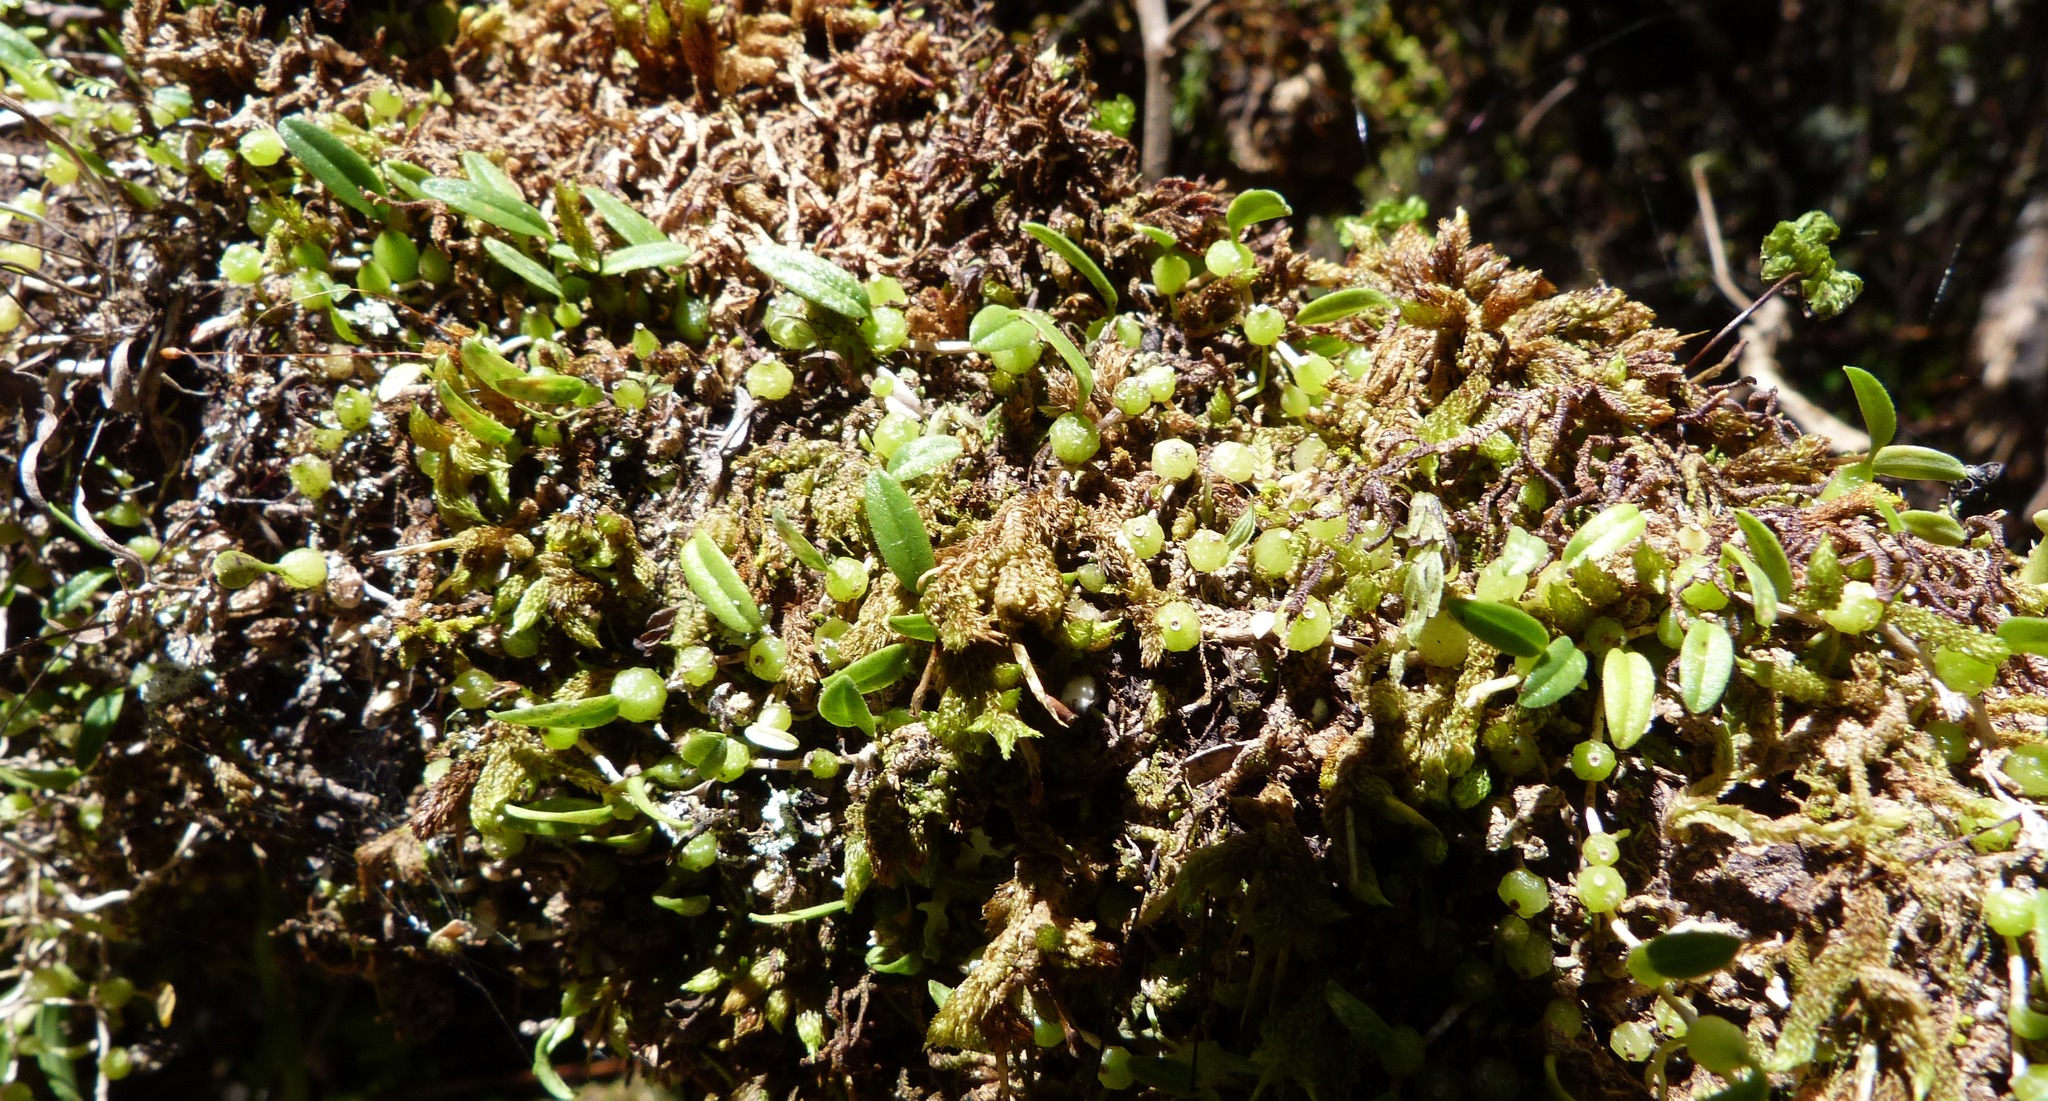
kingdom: Plantae
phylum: Tracheophyta
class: Liliopsida
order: Asparagales
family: Orchidaceae
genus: Bulbophyllum
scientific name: Bulbophyllum pygmaeum
